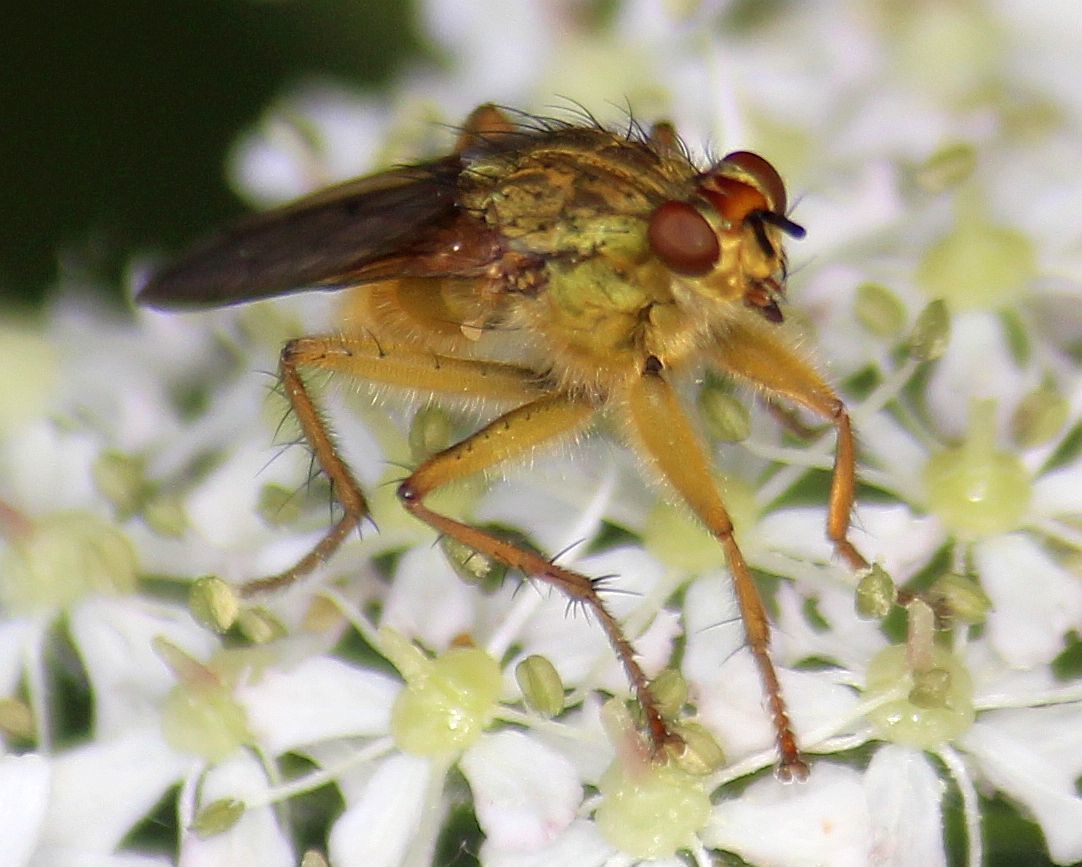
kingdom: Animalia
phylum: Arthropoda
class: Insecta
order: Diptera
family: Scathophagidae
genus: Scathophaga
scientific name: Scathophaga stercoraria
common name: Yellow dung fly
